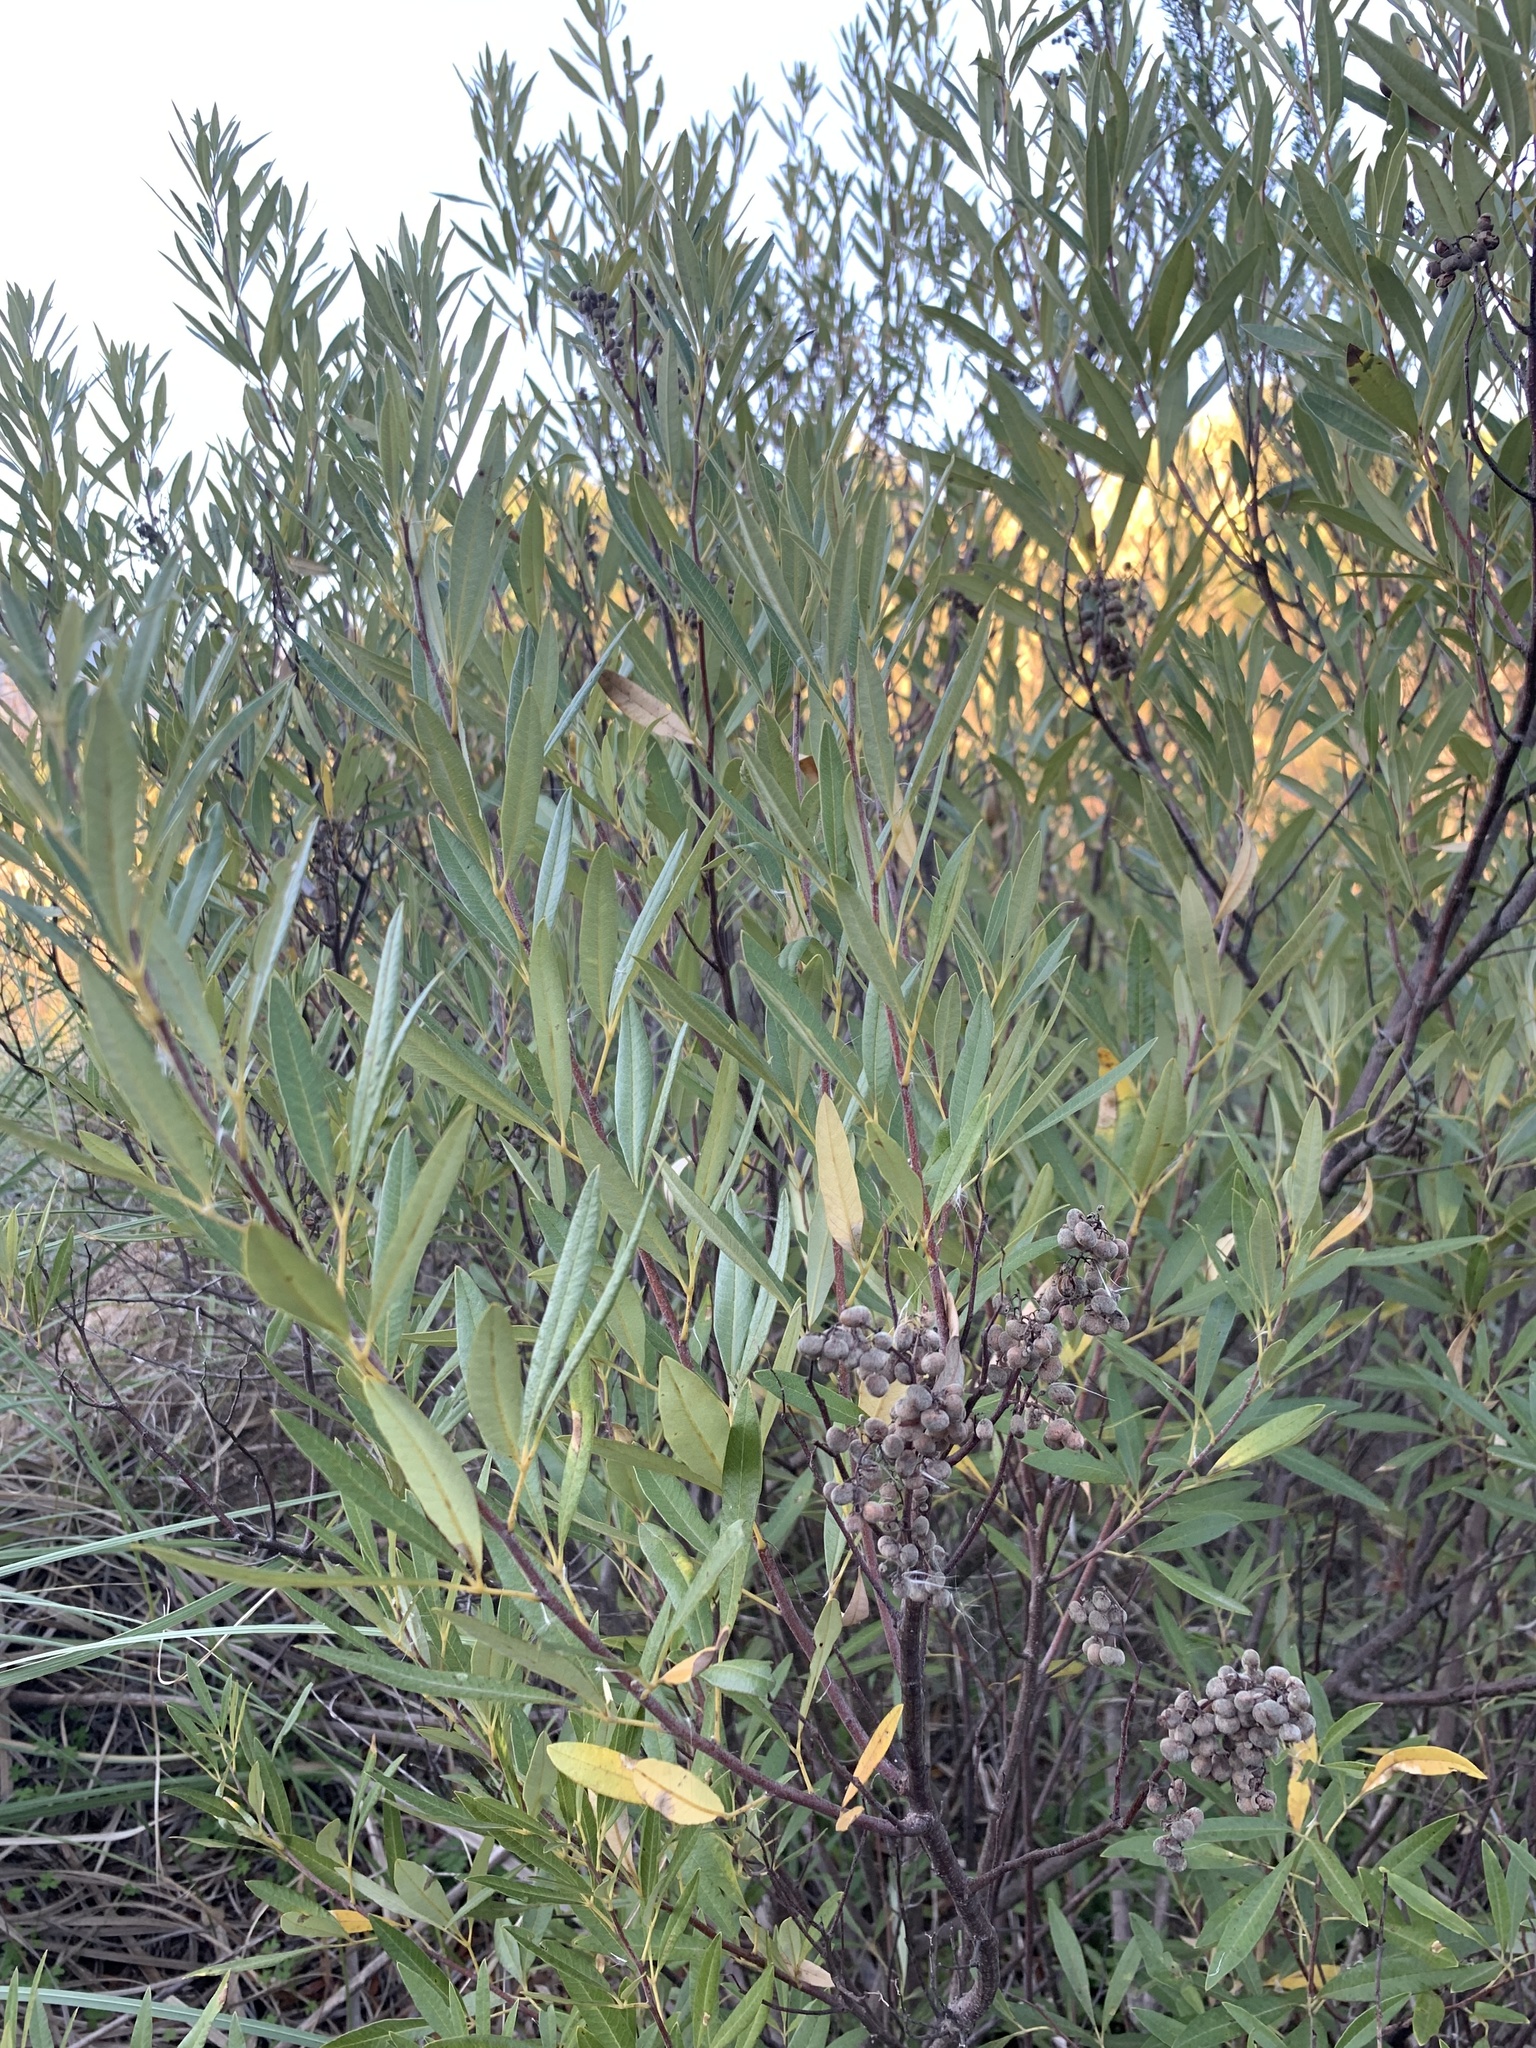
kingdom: Plantae
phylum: Tracheophyta
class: Magnoliopsida
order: Sapindales
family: Anacardiaceae
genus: Searsia
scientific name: Searsia angustifolia
